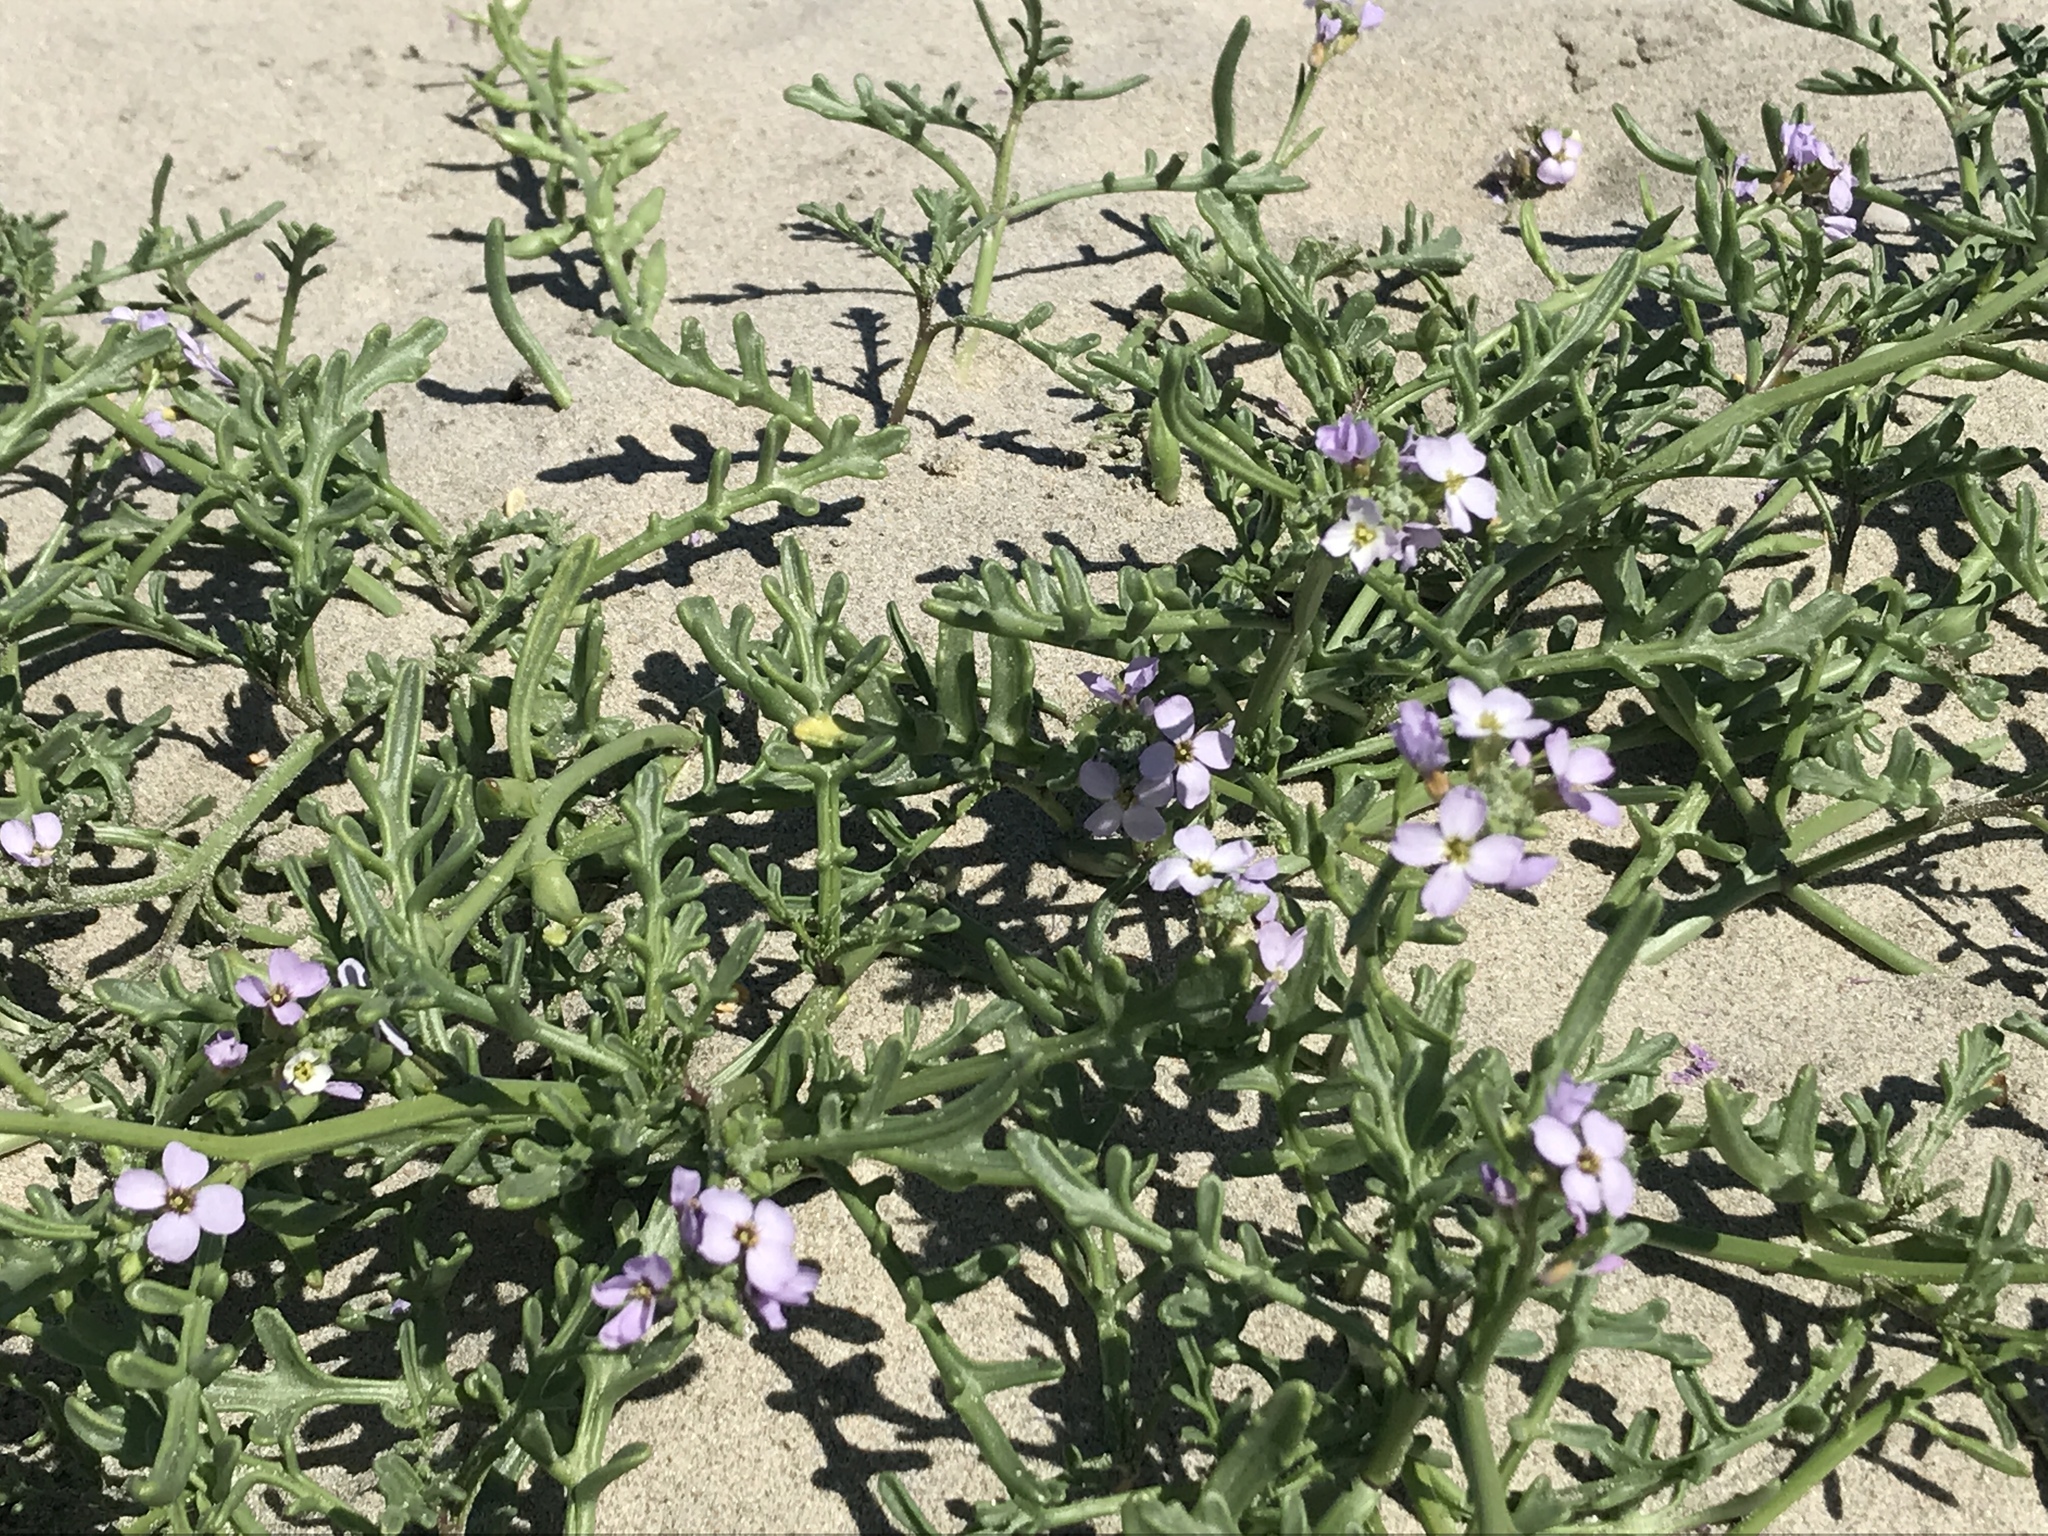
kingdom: Plantae
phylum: Tracheophyta
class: Magnoliopsida
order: Brassicales
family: Brassicaceae
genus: Cakile
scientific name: Cakile maritima
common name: Sea rocket
